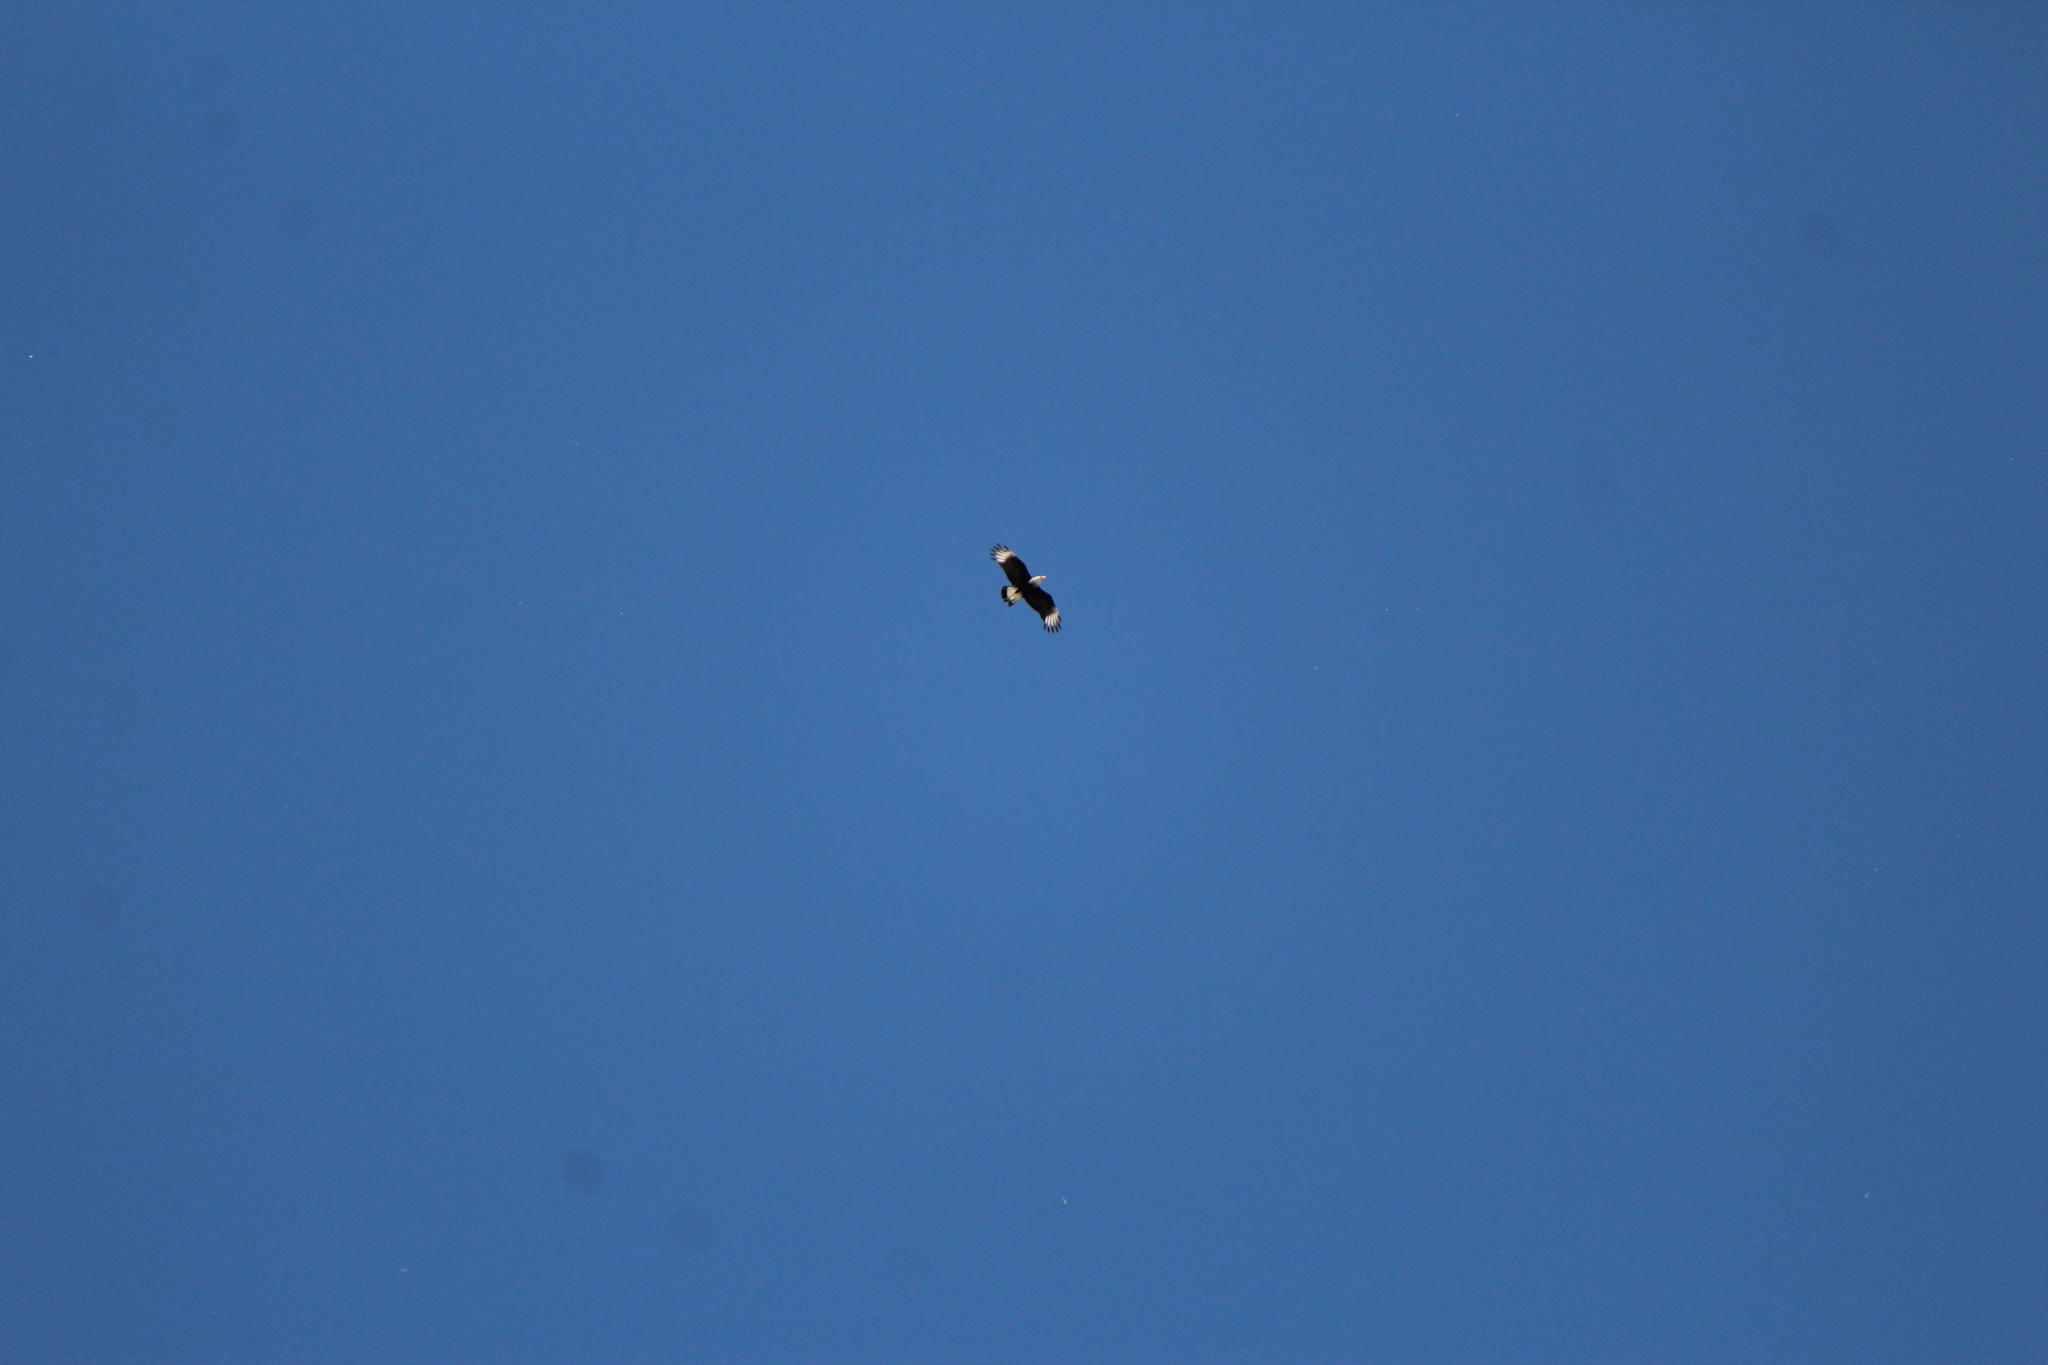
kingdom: Animalia
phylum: Chordata
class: Aves
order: Falconiformes
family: Falconidae
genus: Caracara
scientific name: Caracara plancus
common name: Southern caracara
